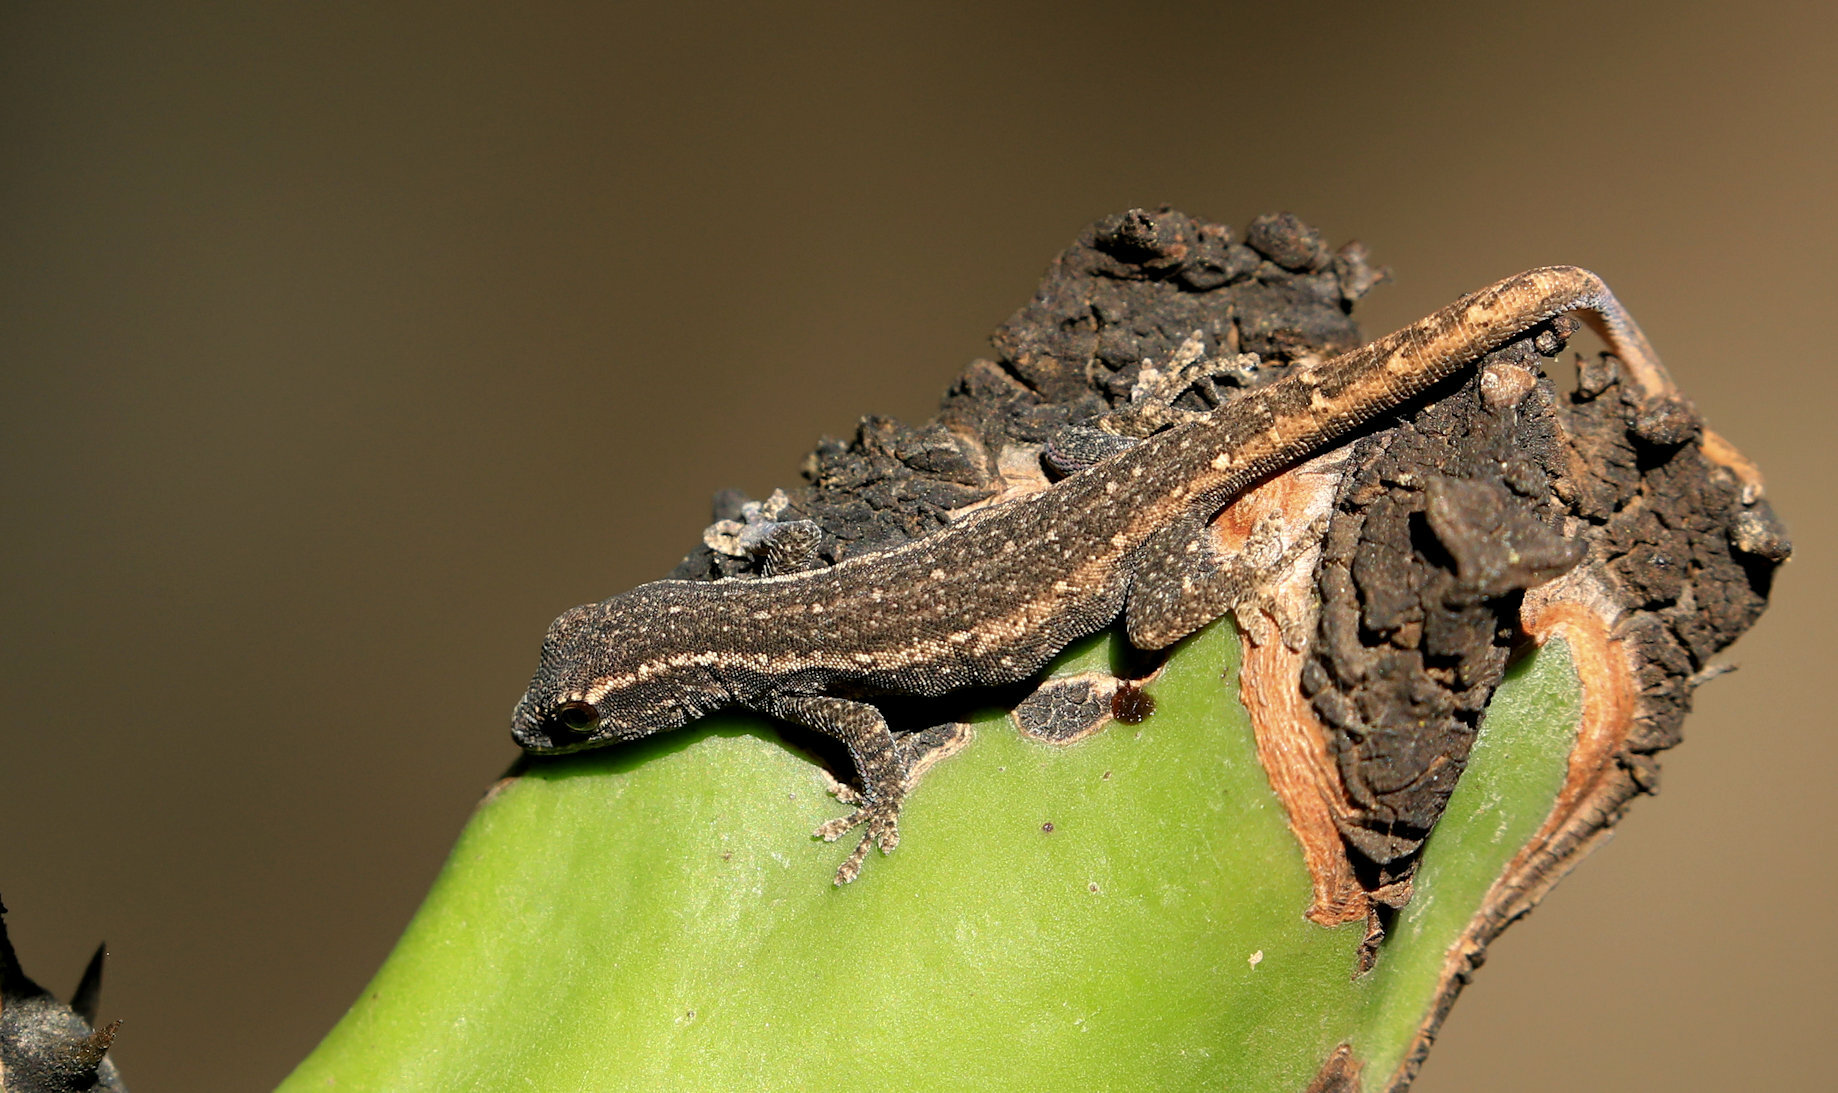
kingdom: Animalia
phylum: Chordata
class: Squamata
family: Gekkonidae
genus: Lygodactylus
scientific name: Lygodactylus capensis
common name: Cape dwarf gecko
